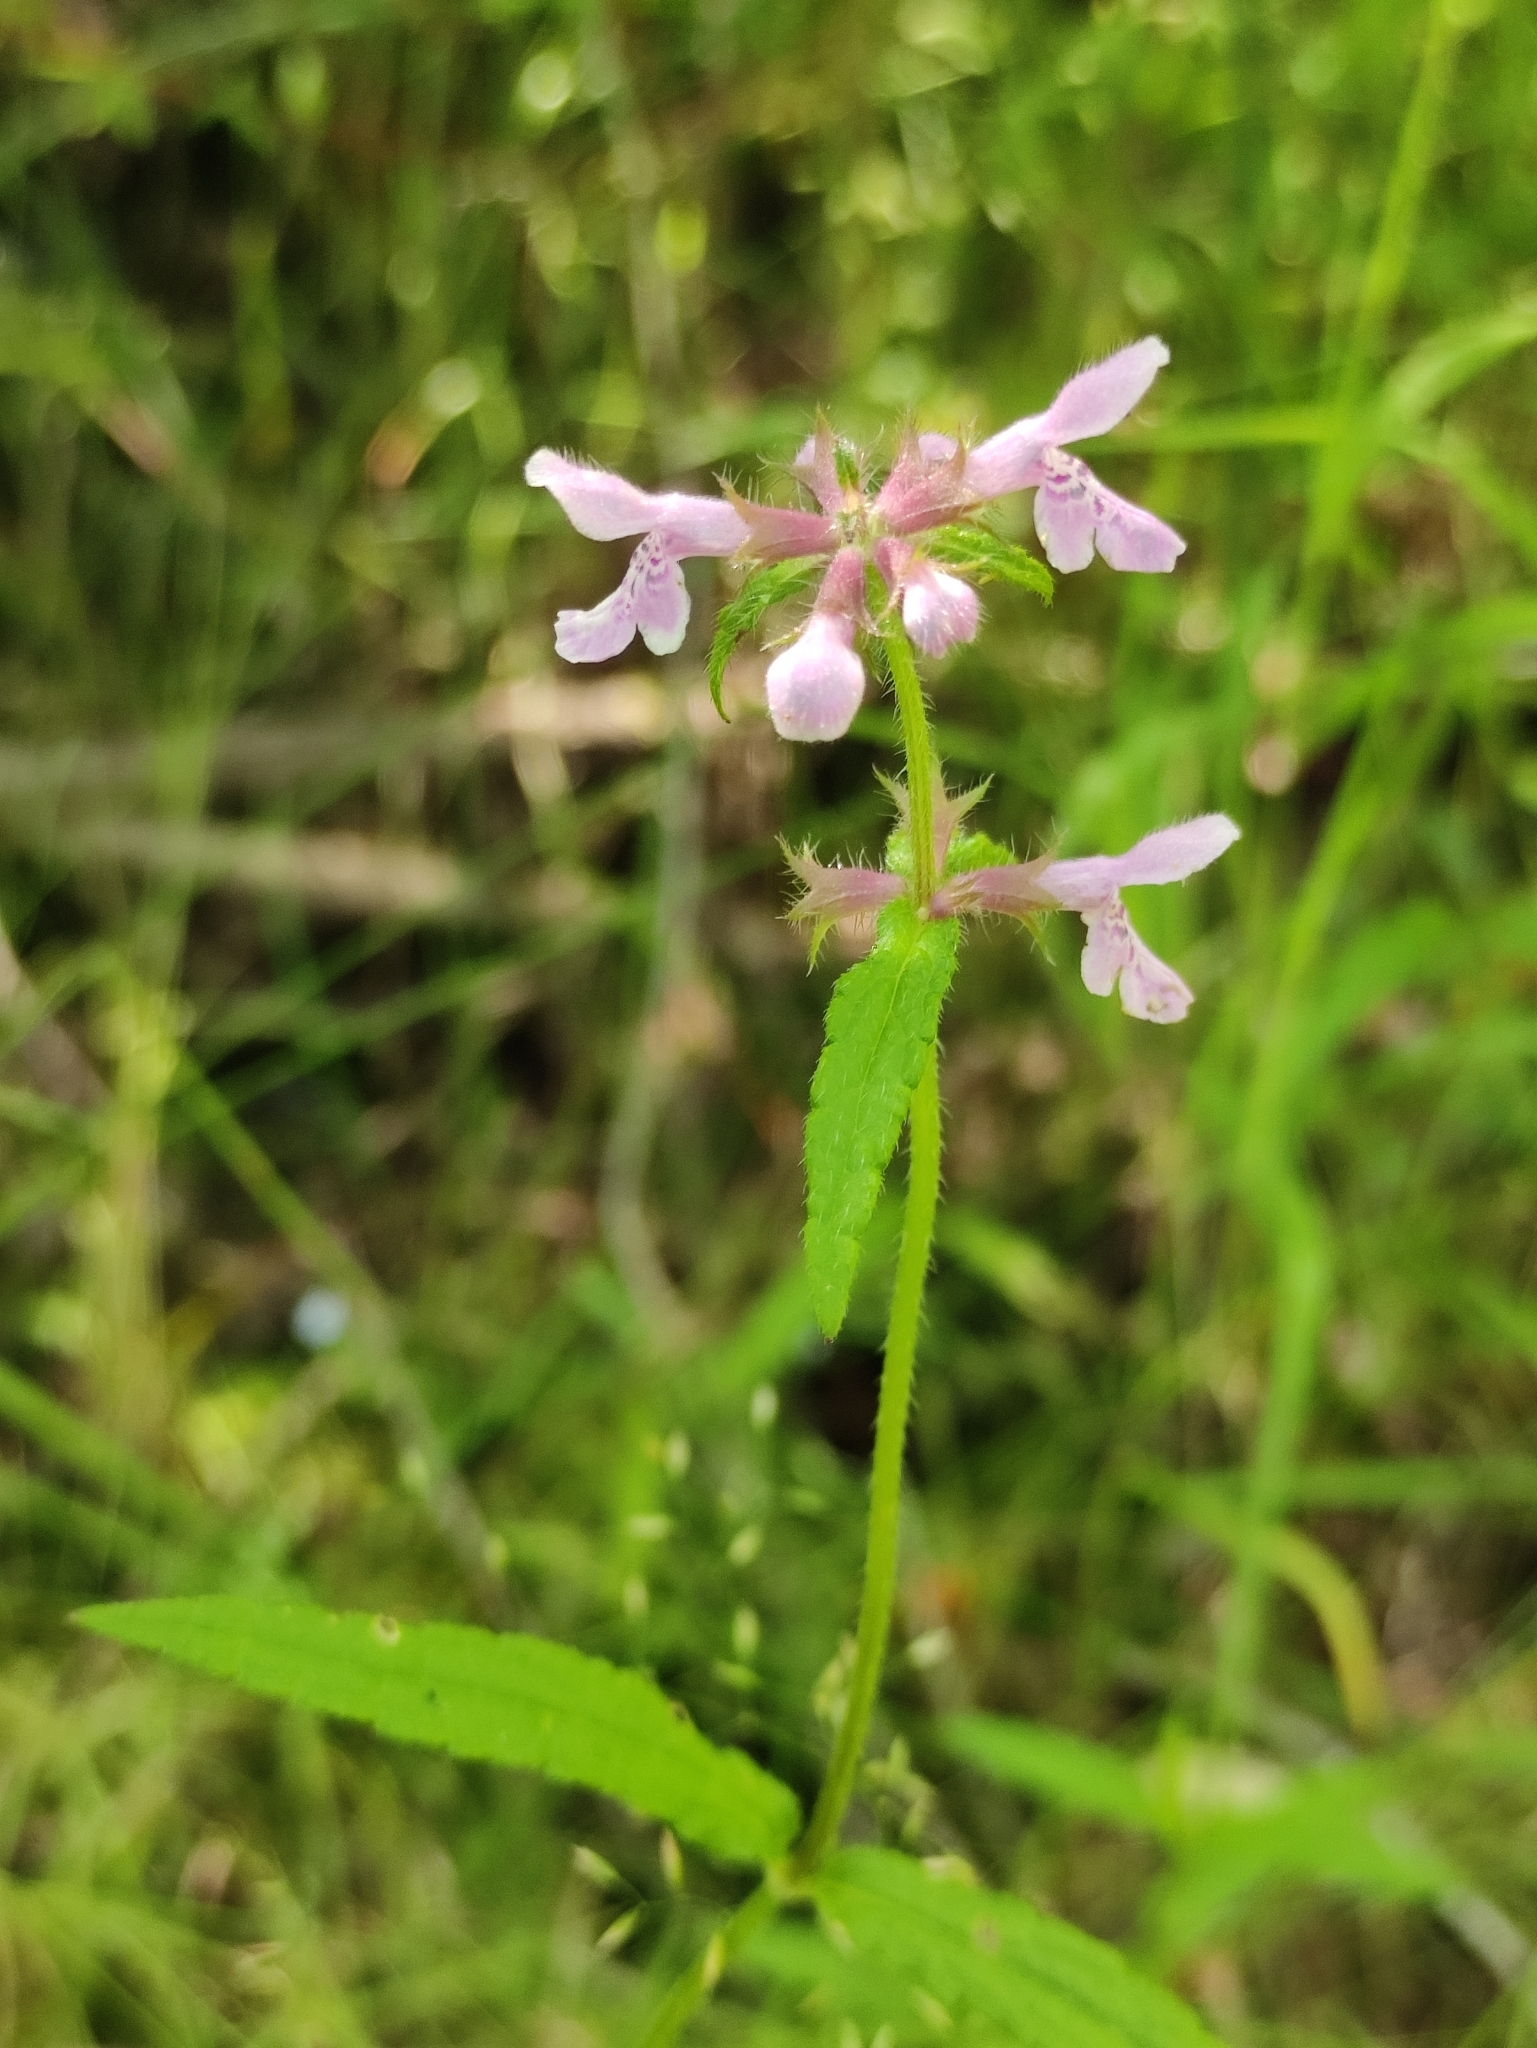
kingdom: Plantae
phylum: Tracheophyta
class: Magnoliopsida
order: Lamiales
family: Lamiaceae
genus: Stachys
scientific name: Stachys aspera
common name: Hyssopleaf hedgenettle
